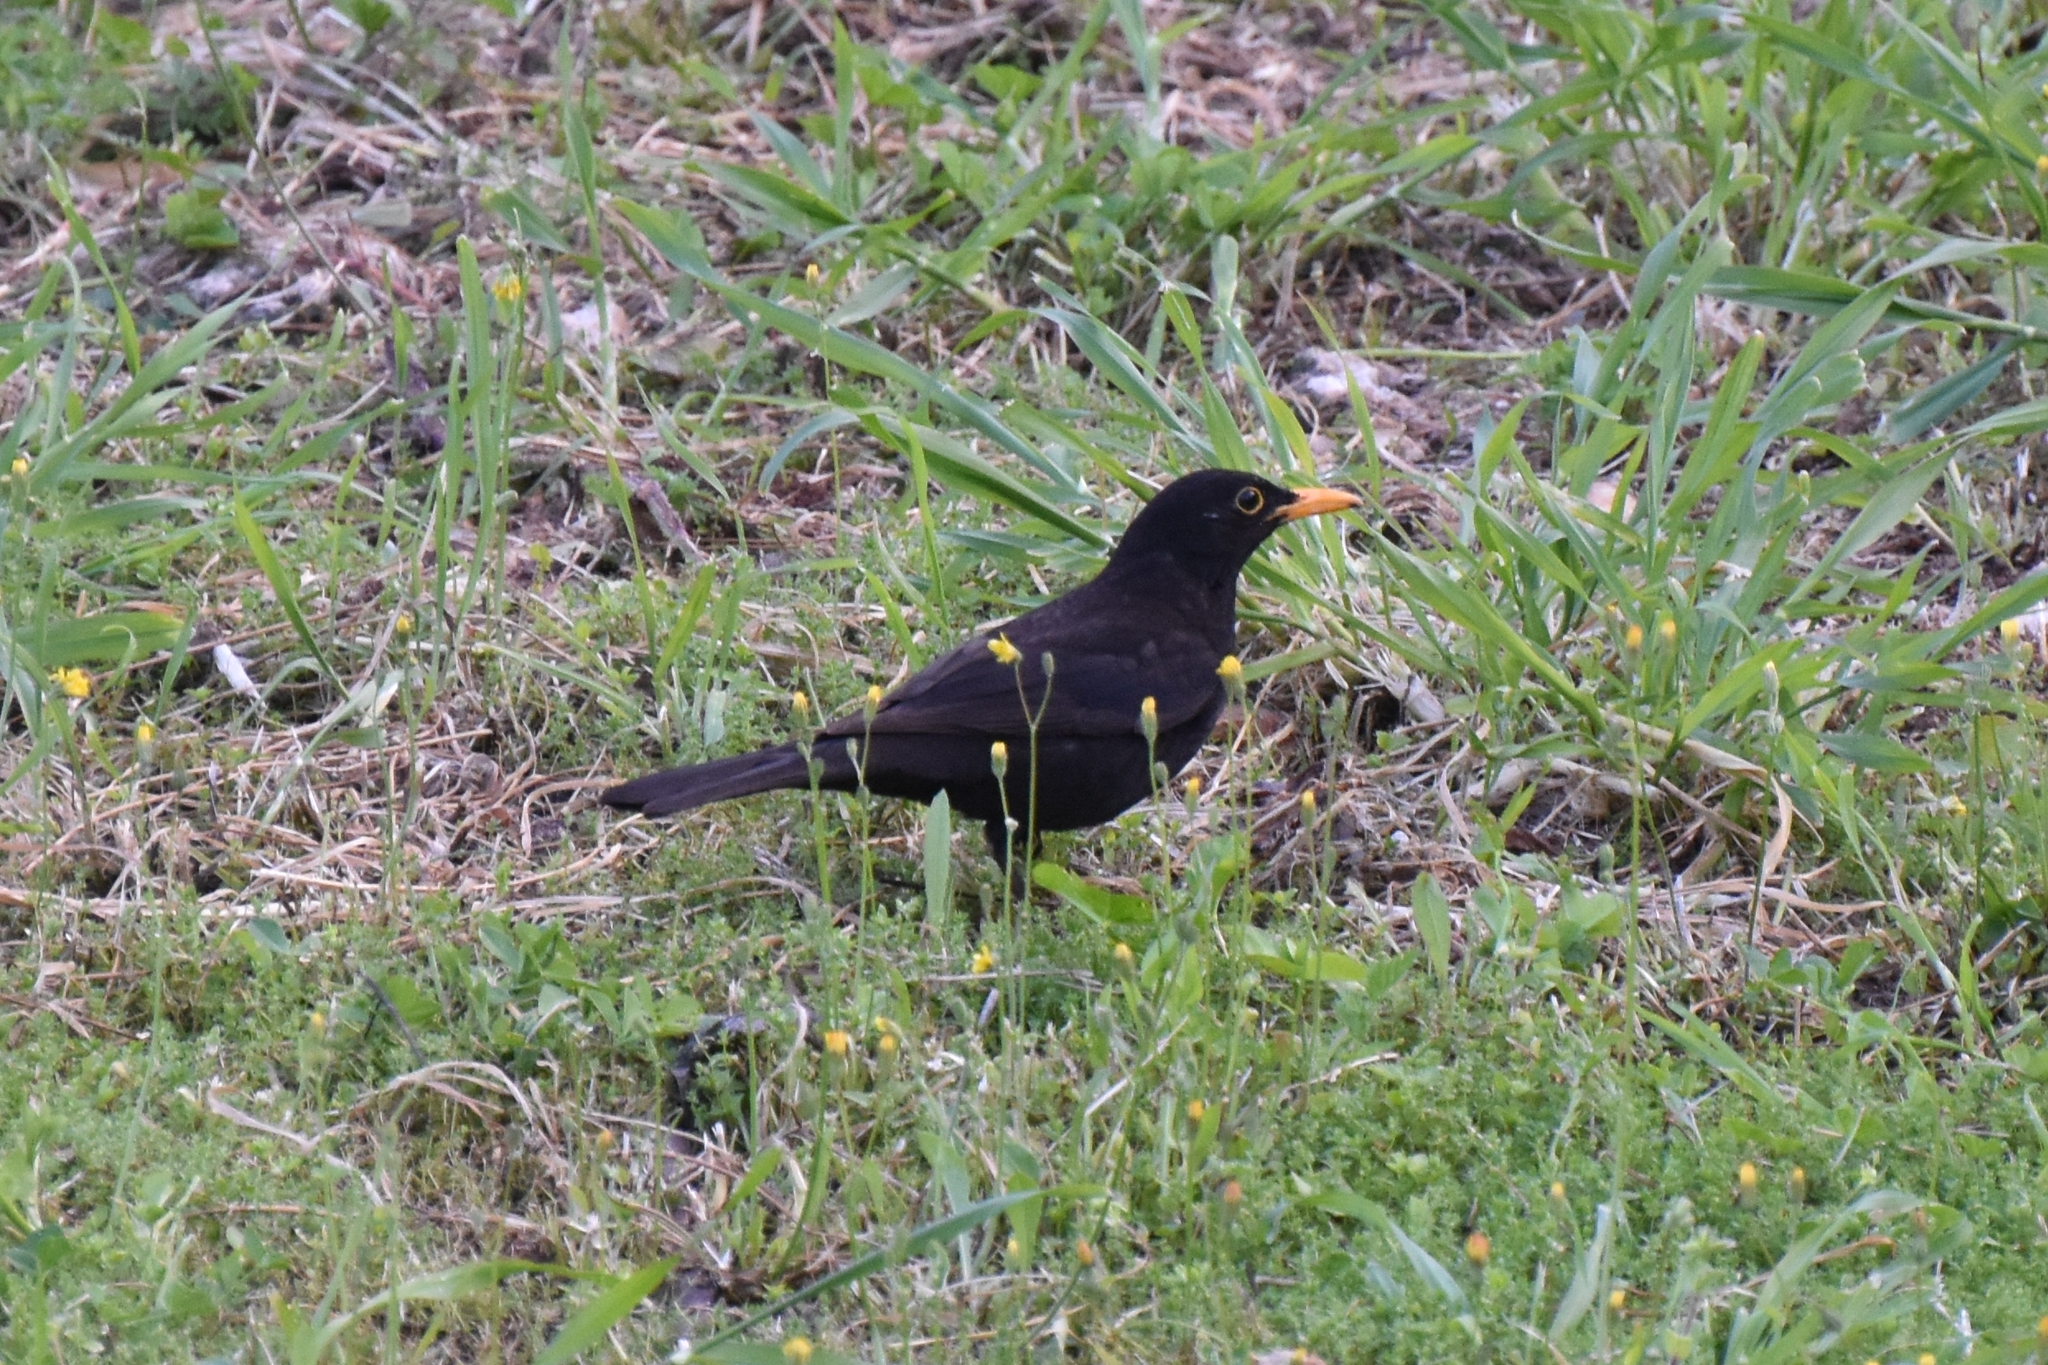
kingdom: Animalia
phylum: Chordata
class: Aves
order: Passeriformes
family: Turdidae
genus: Turdus
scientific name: Turdus merula
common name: Common blackbird
